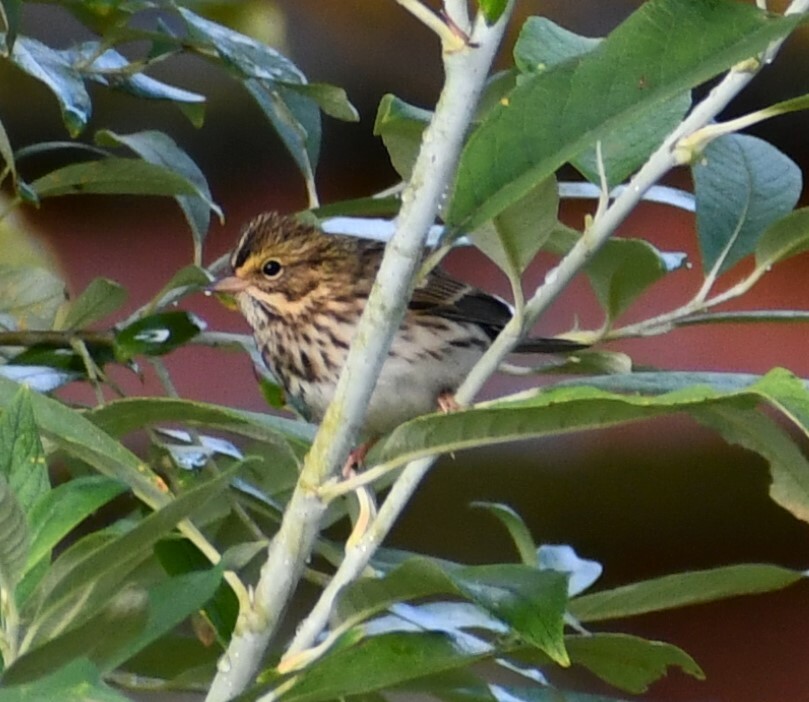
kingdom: Animalia
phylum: Chordata
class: Aves
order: Passeriformes
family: Passerellidae
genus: Passerculus
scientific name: Passerculus sandwichensis
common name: Savannah sparrow
